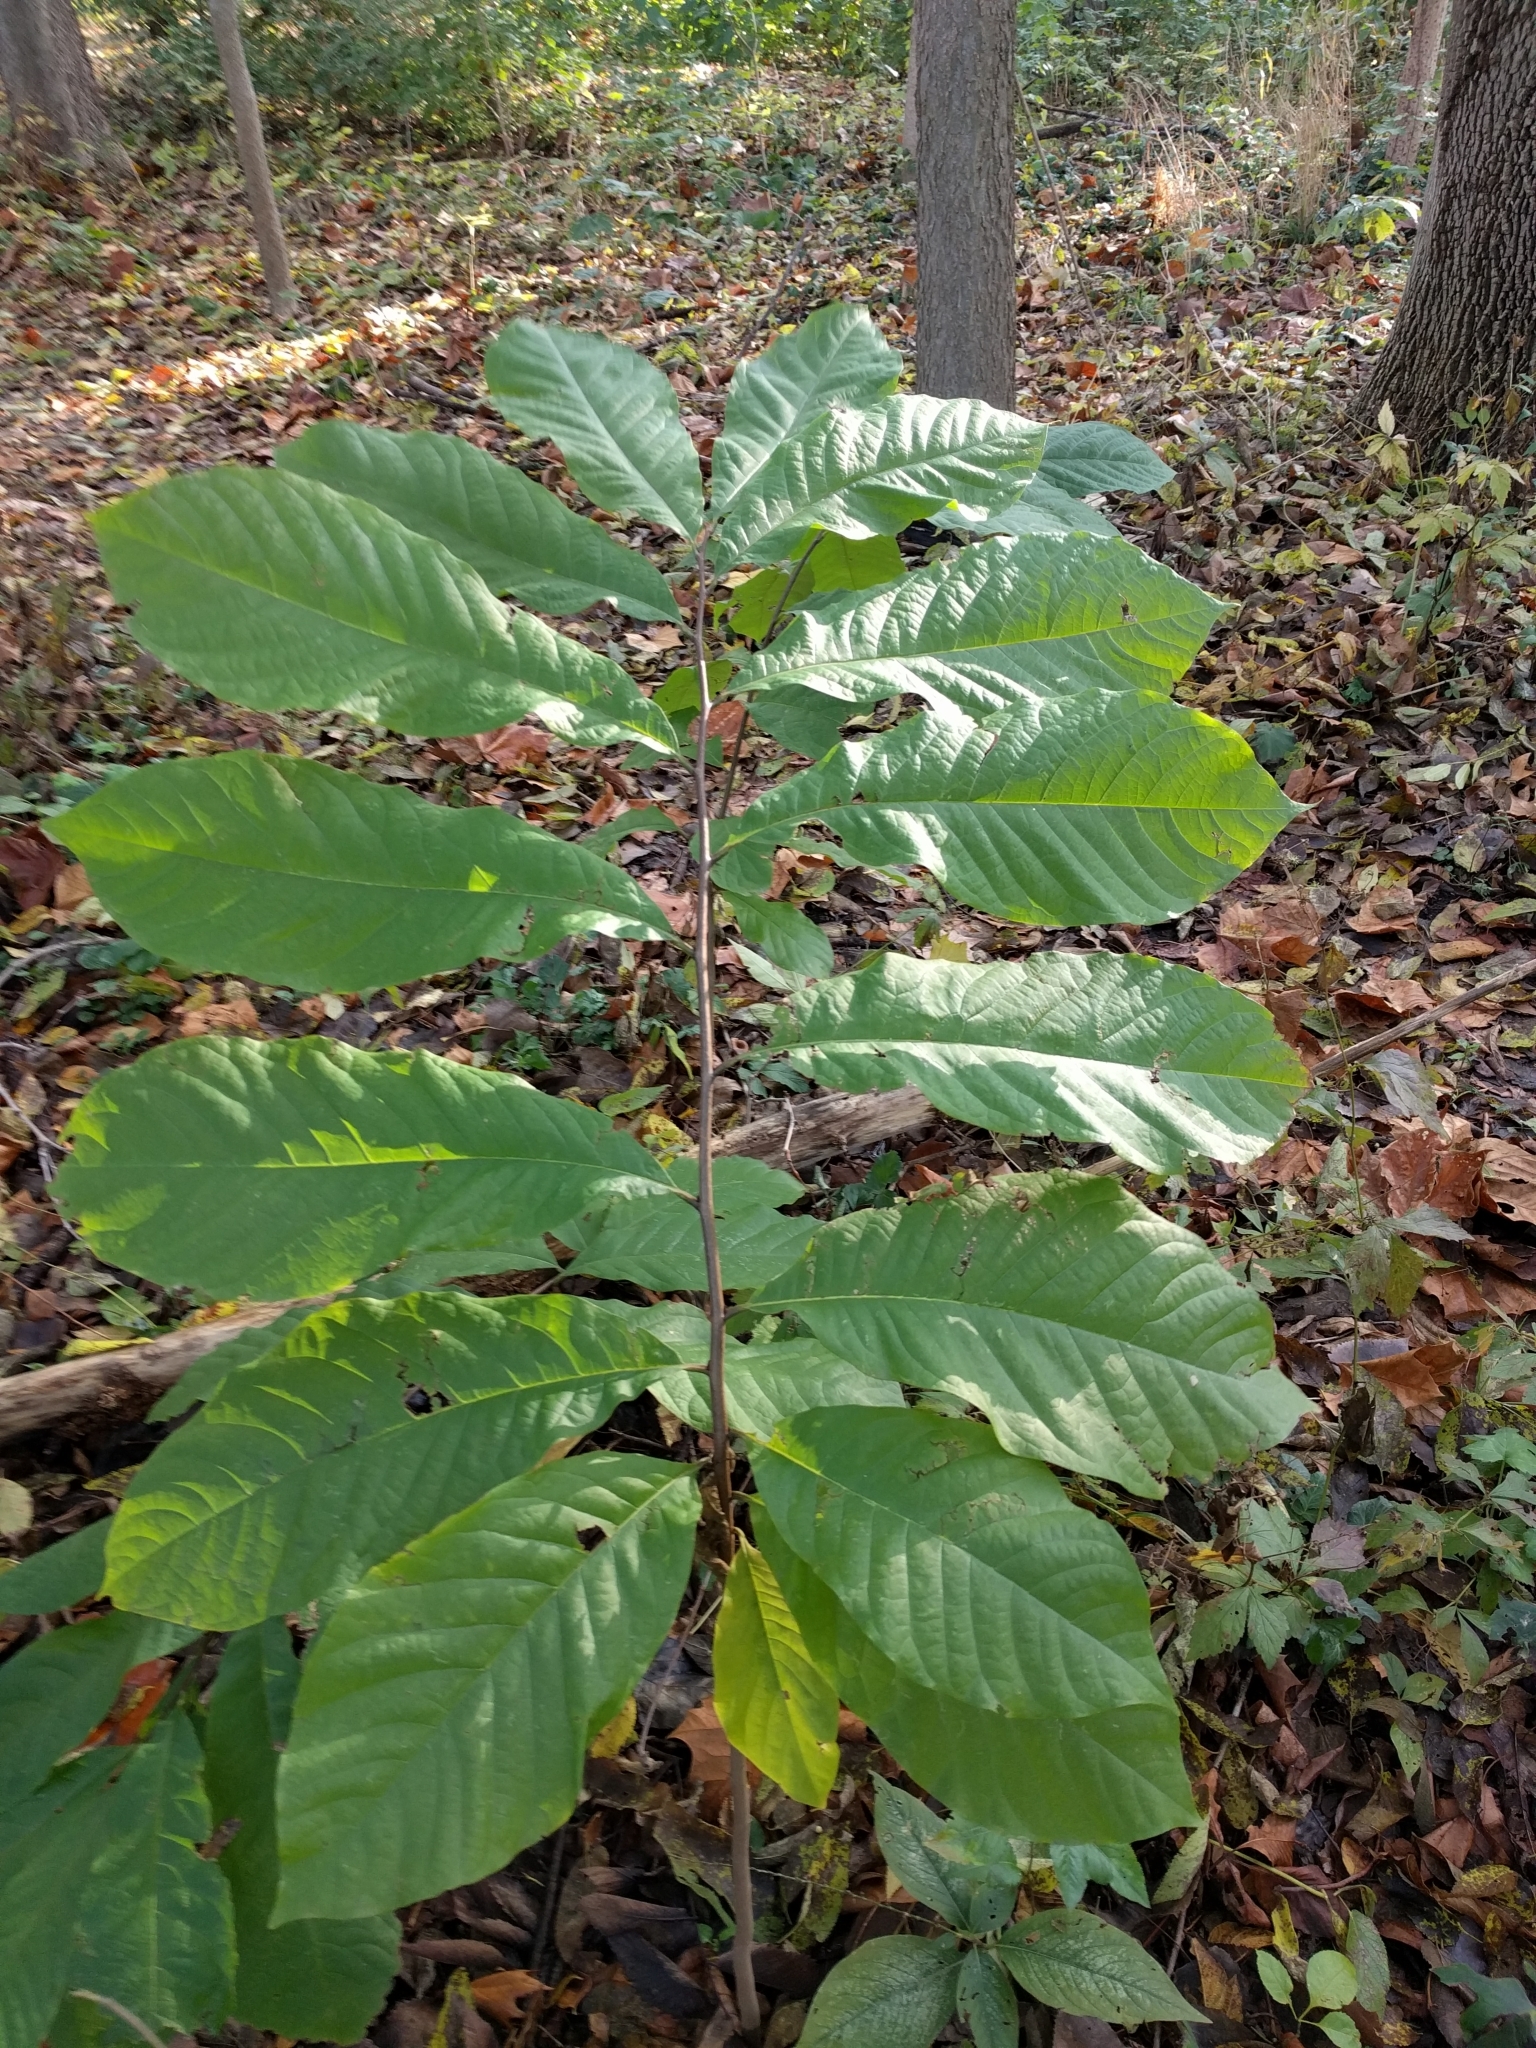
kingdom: Plantae
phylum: Tracheophyta
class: Magnoliopsida
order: Magnoliales
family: Annonaceae
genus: Asimina
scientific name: Asimina triloba
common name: Dog-banana
